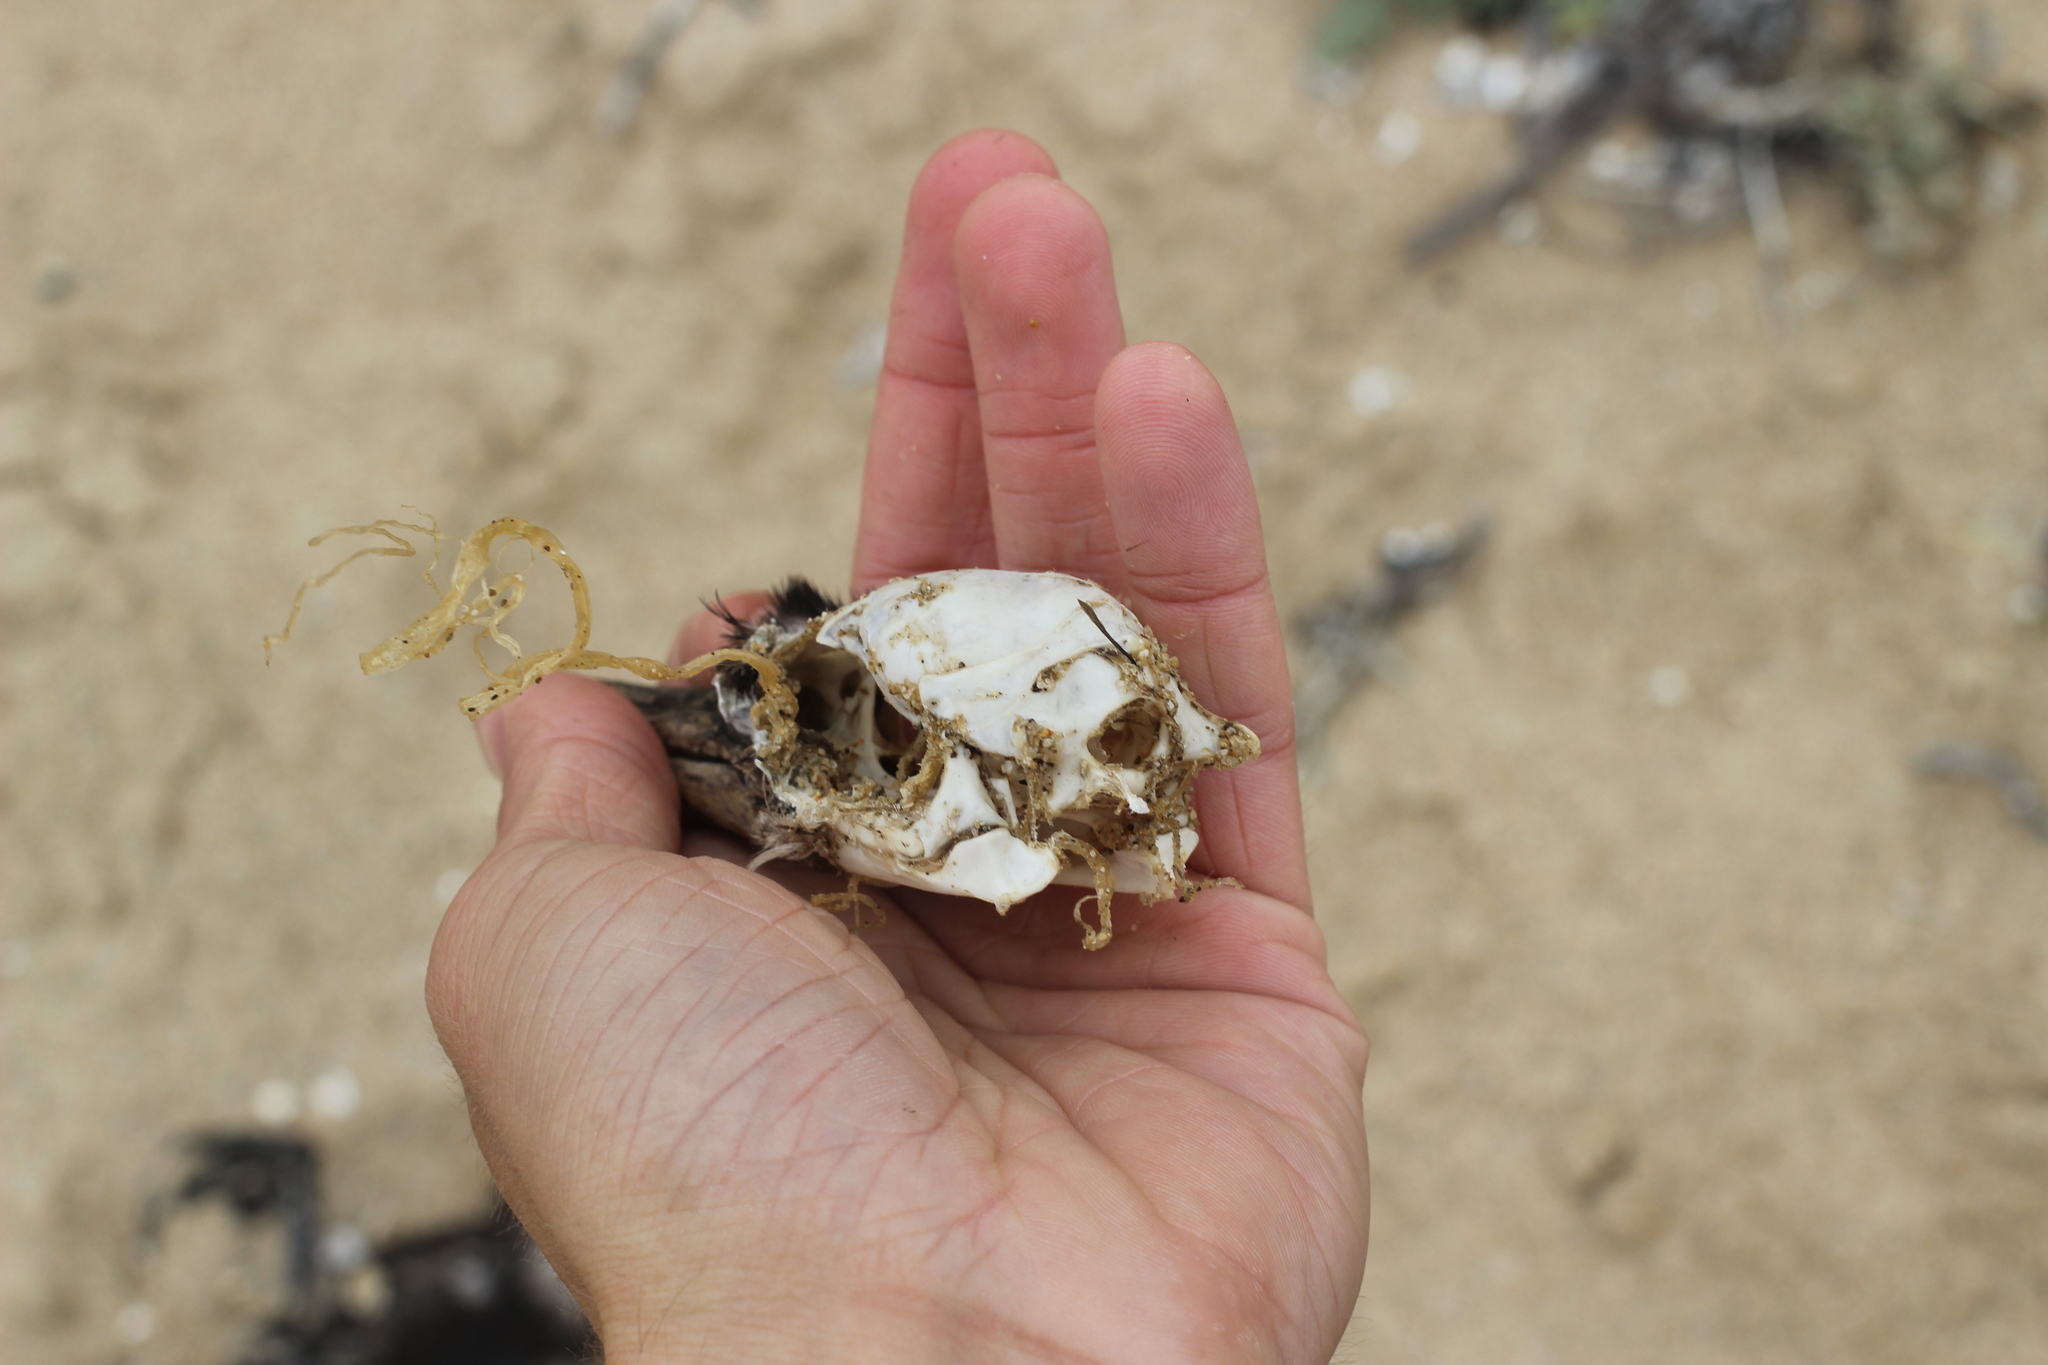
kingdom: Animalia
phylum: Chordata
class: Aves
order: Suliformes
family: Phalacrocoracidae
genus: Urile
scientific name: Urile penicillatus
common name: Brandt's cormorant
